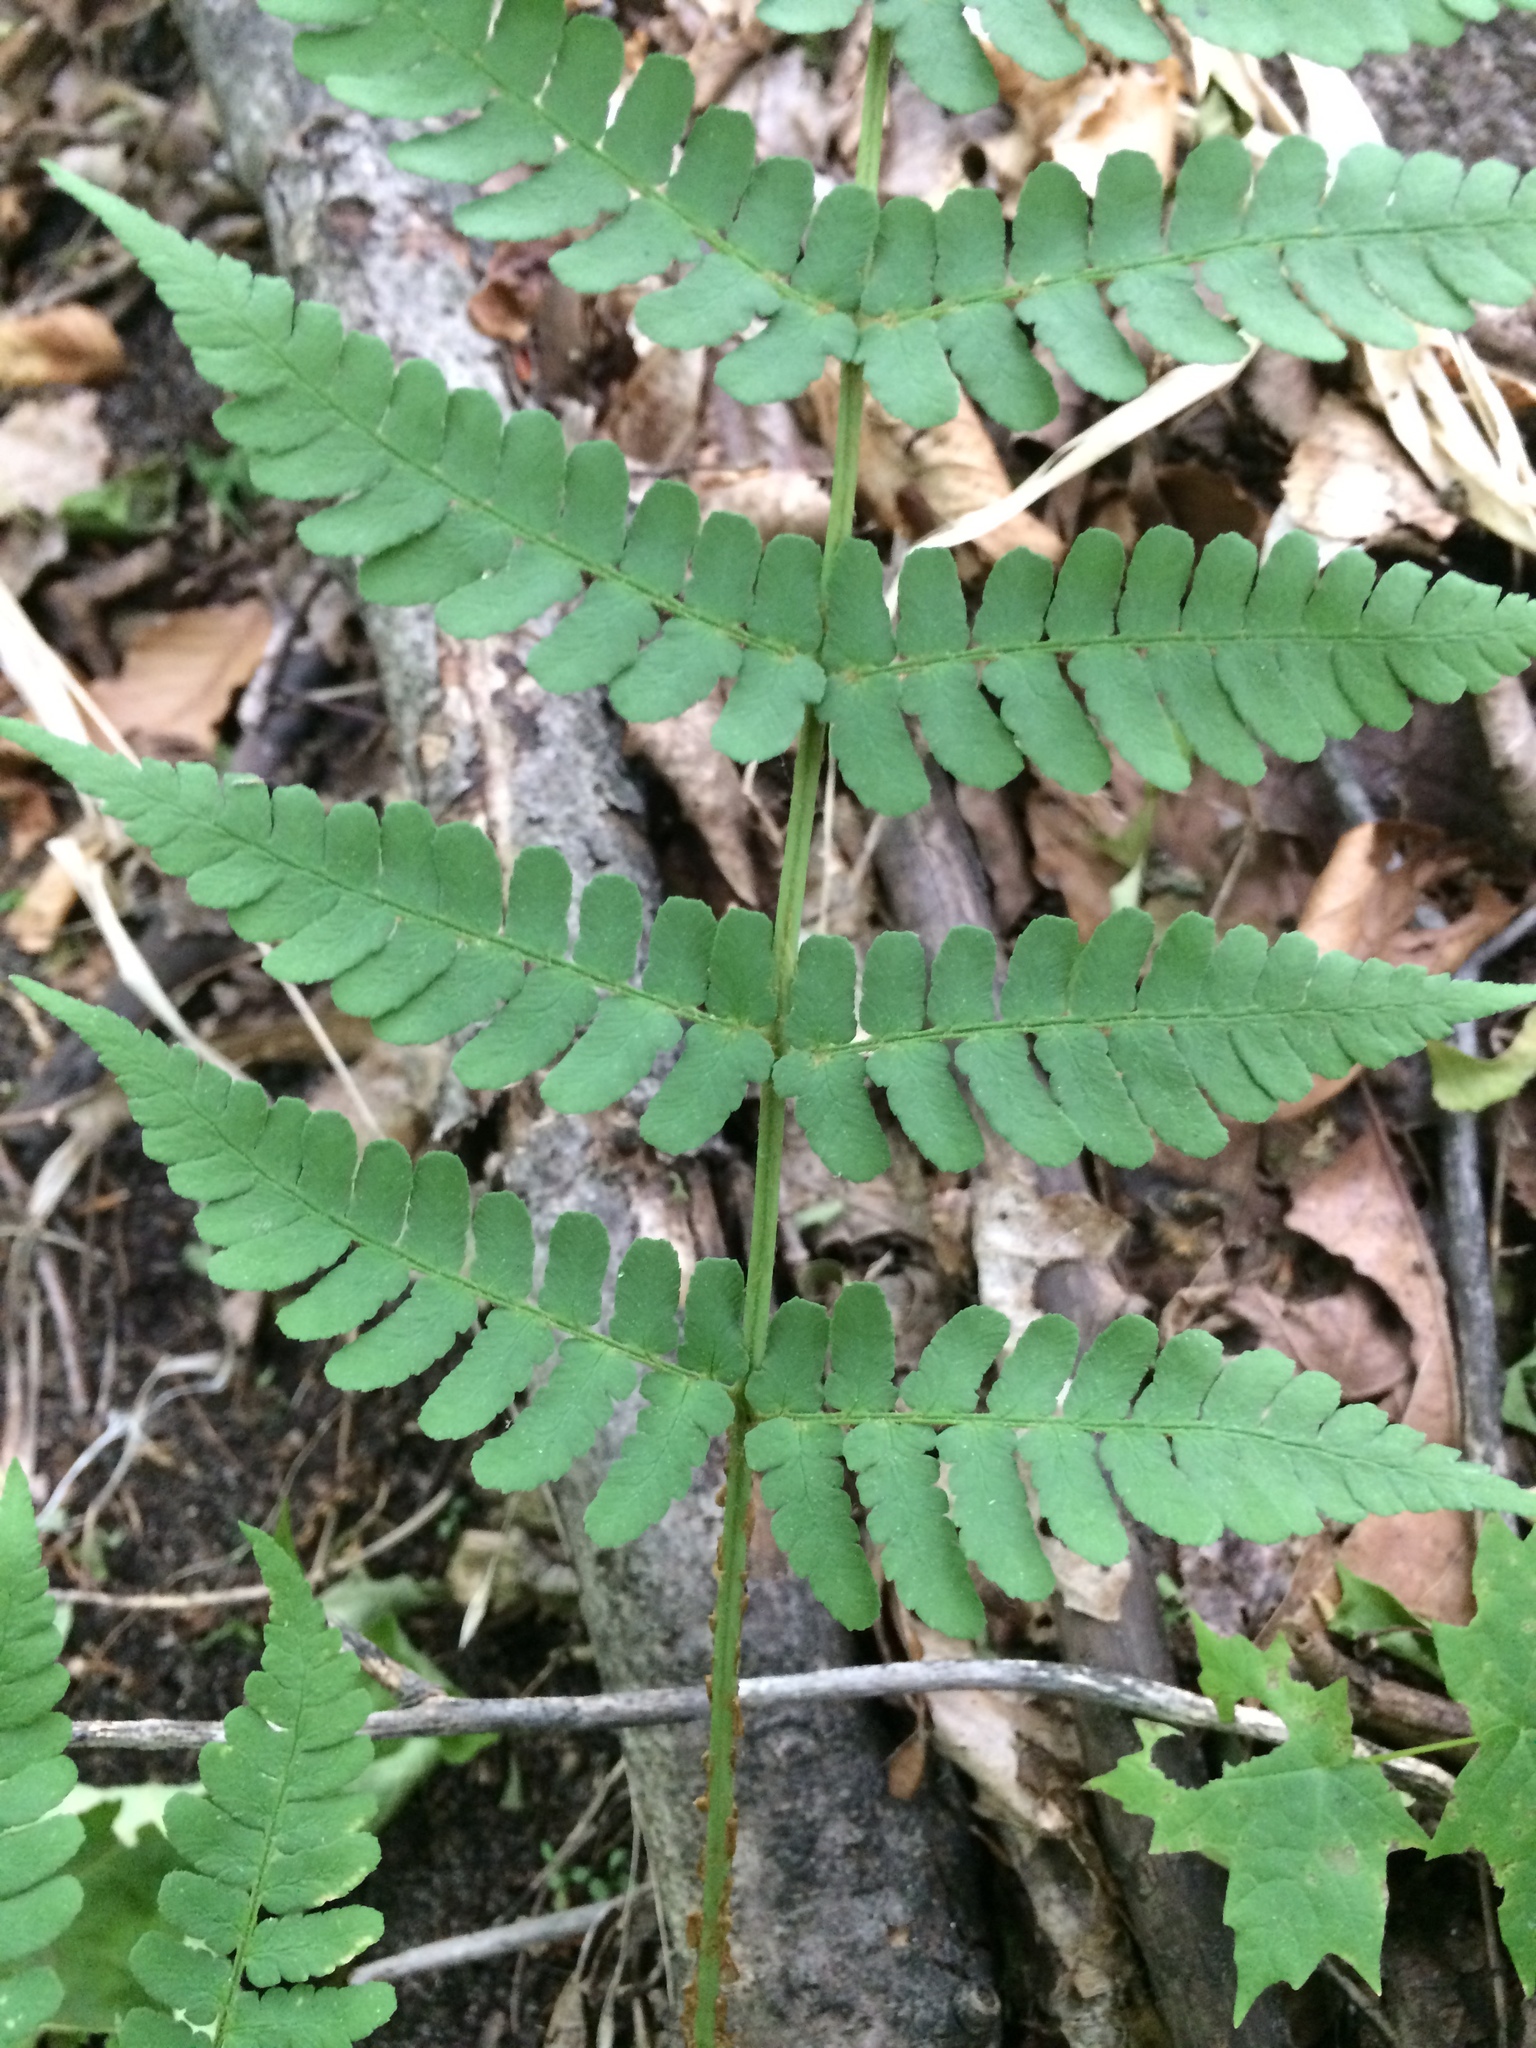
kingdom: Plantae
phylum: Tracheophyta
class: Polypodiopsida
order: Polypodiales
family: Dryopteridaceae
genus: Dryopteris
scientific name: Dryopteris marginalis
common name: Marginal wood fern
